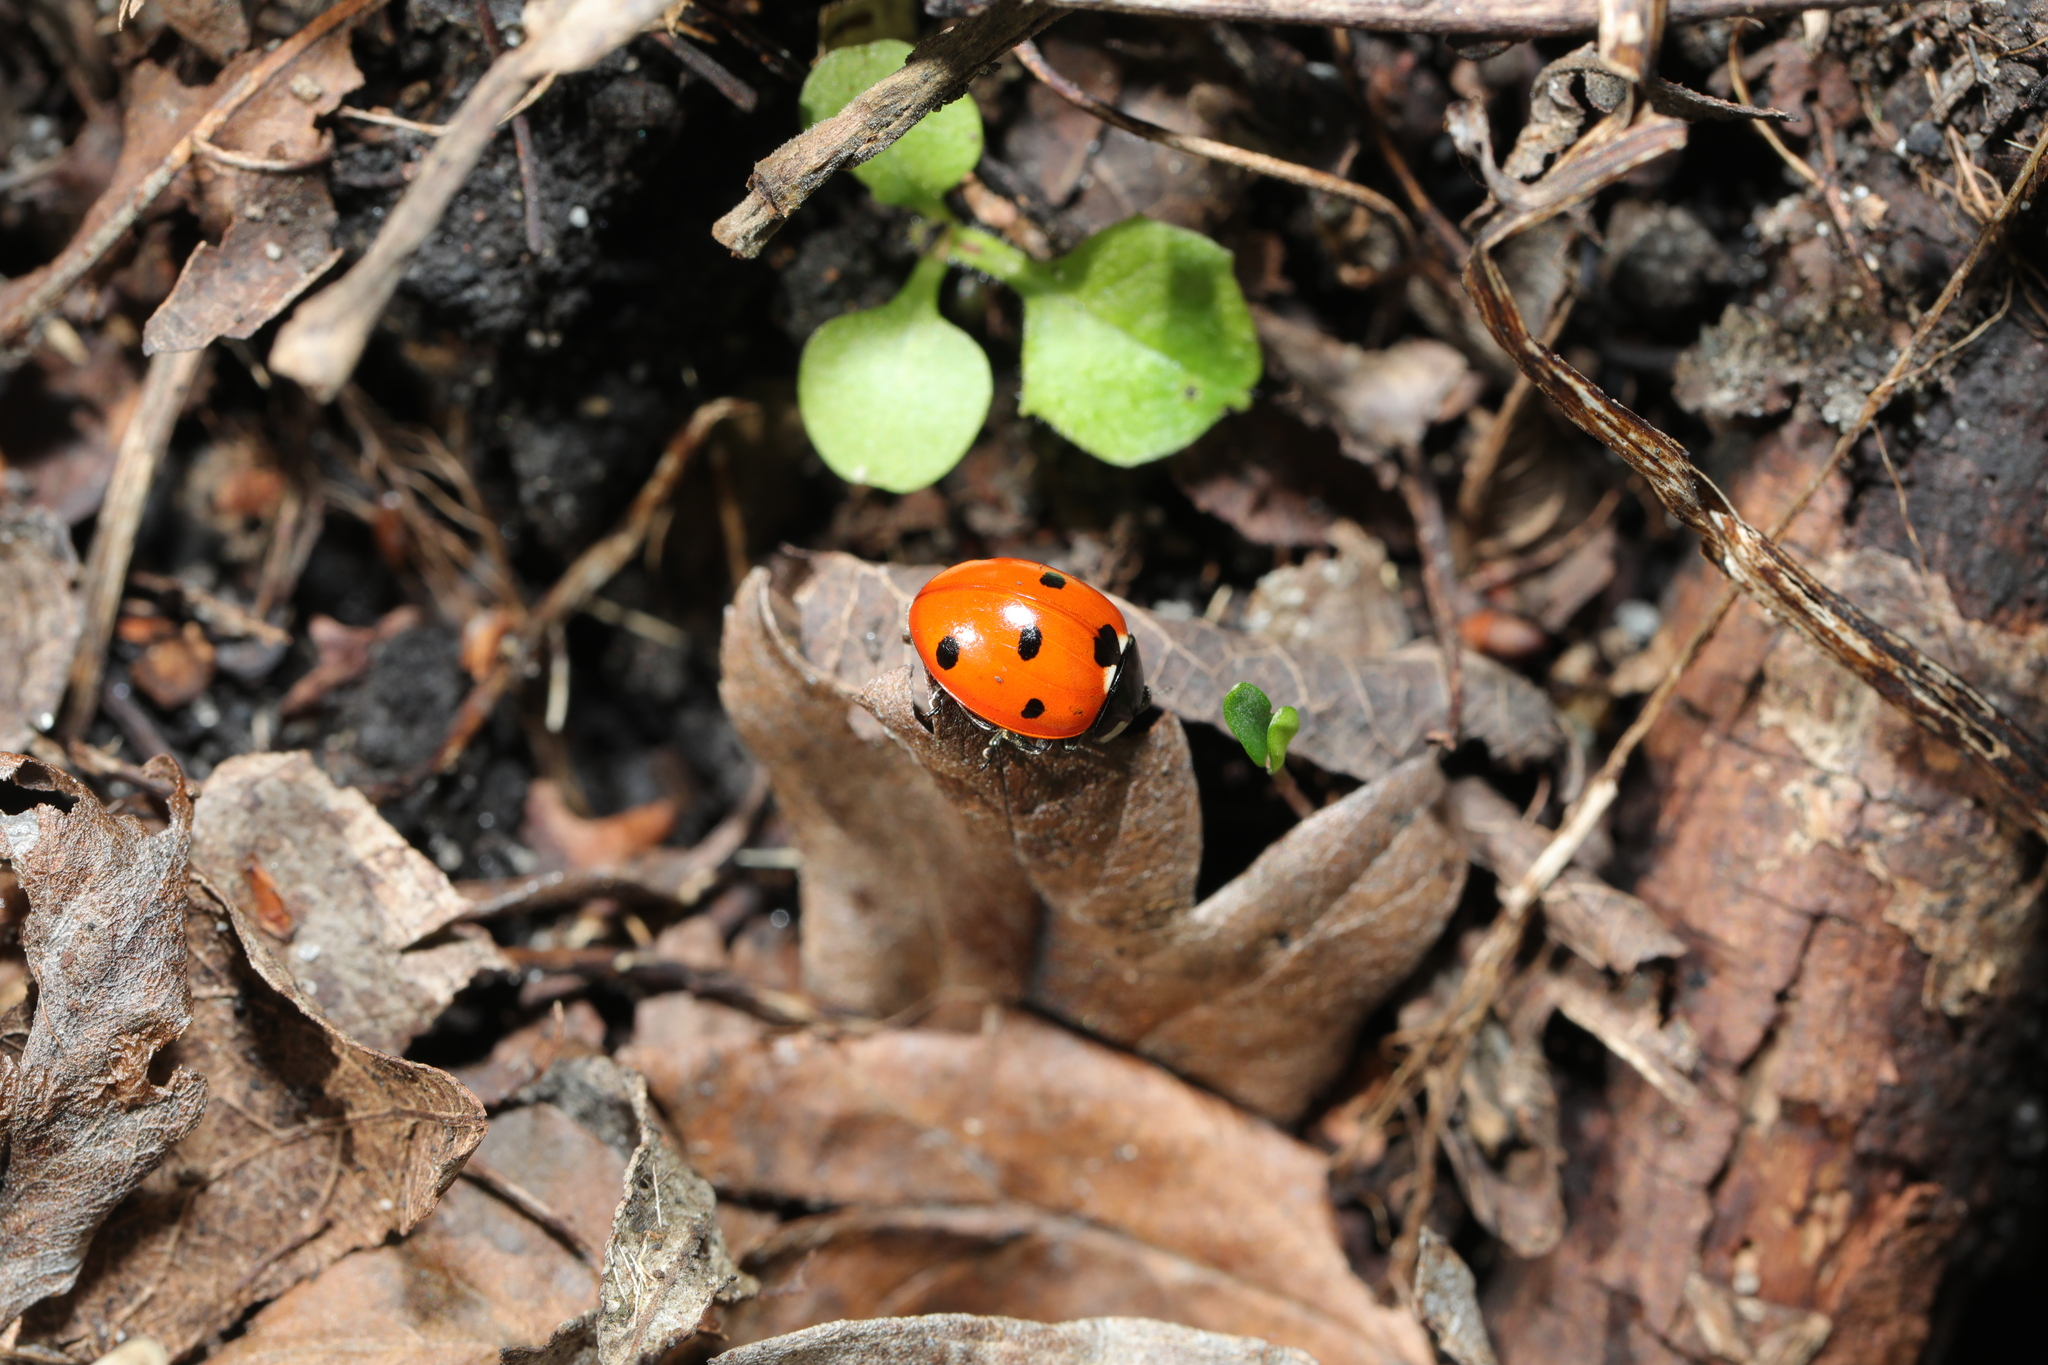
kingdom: Animalia
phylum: Arthropoda
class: Insecta
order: Coleoptera
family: Coccinellidae
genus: Coccinella
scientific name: Coccinella septempunctata
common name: Sevenspotted lady beetle
